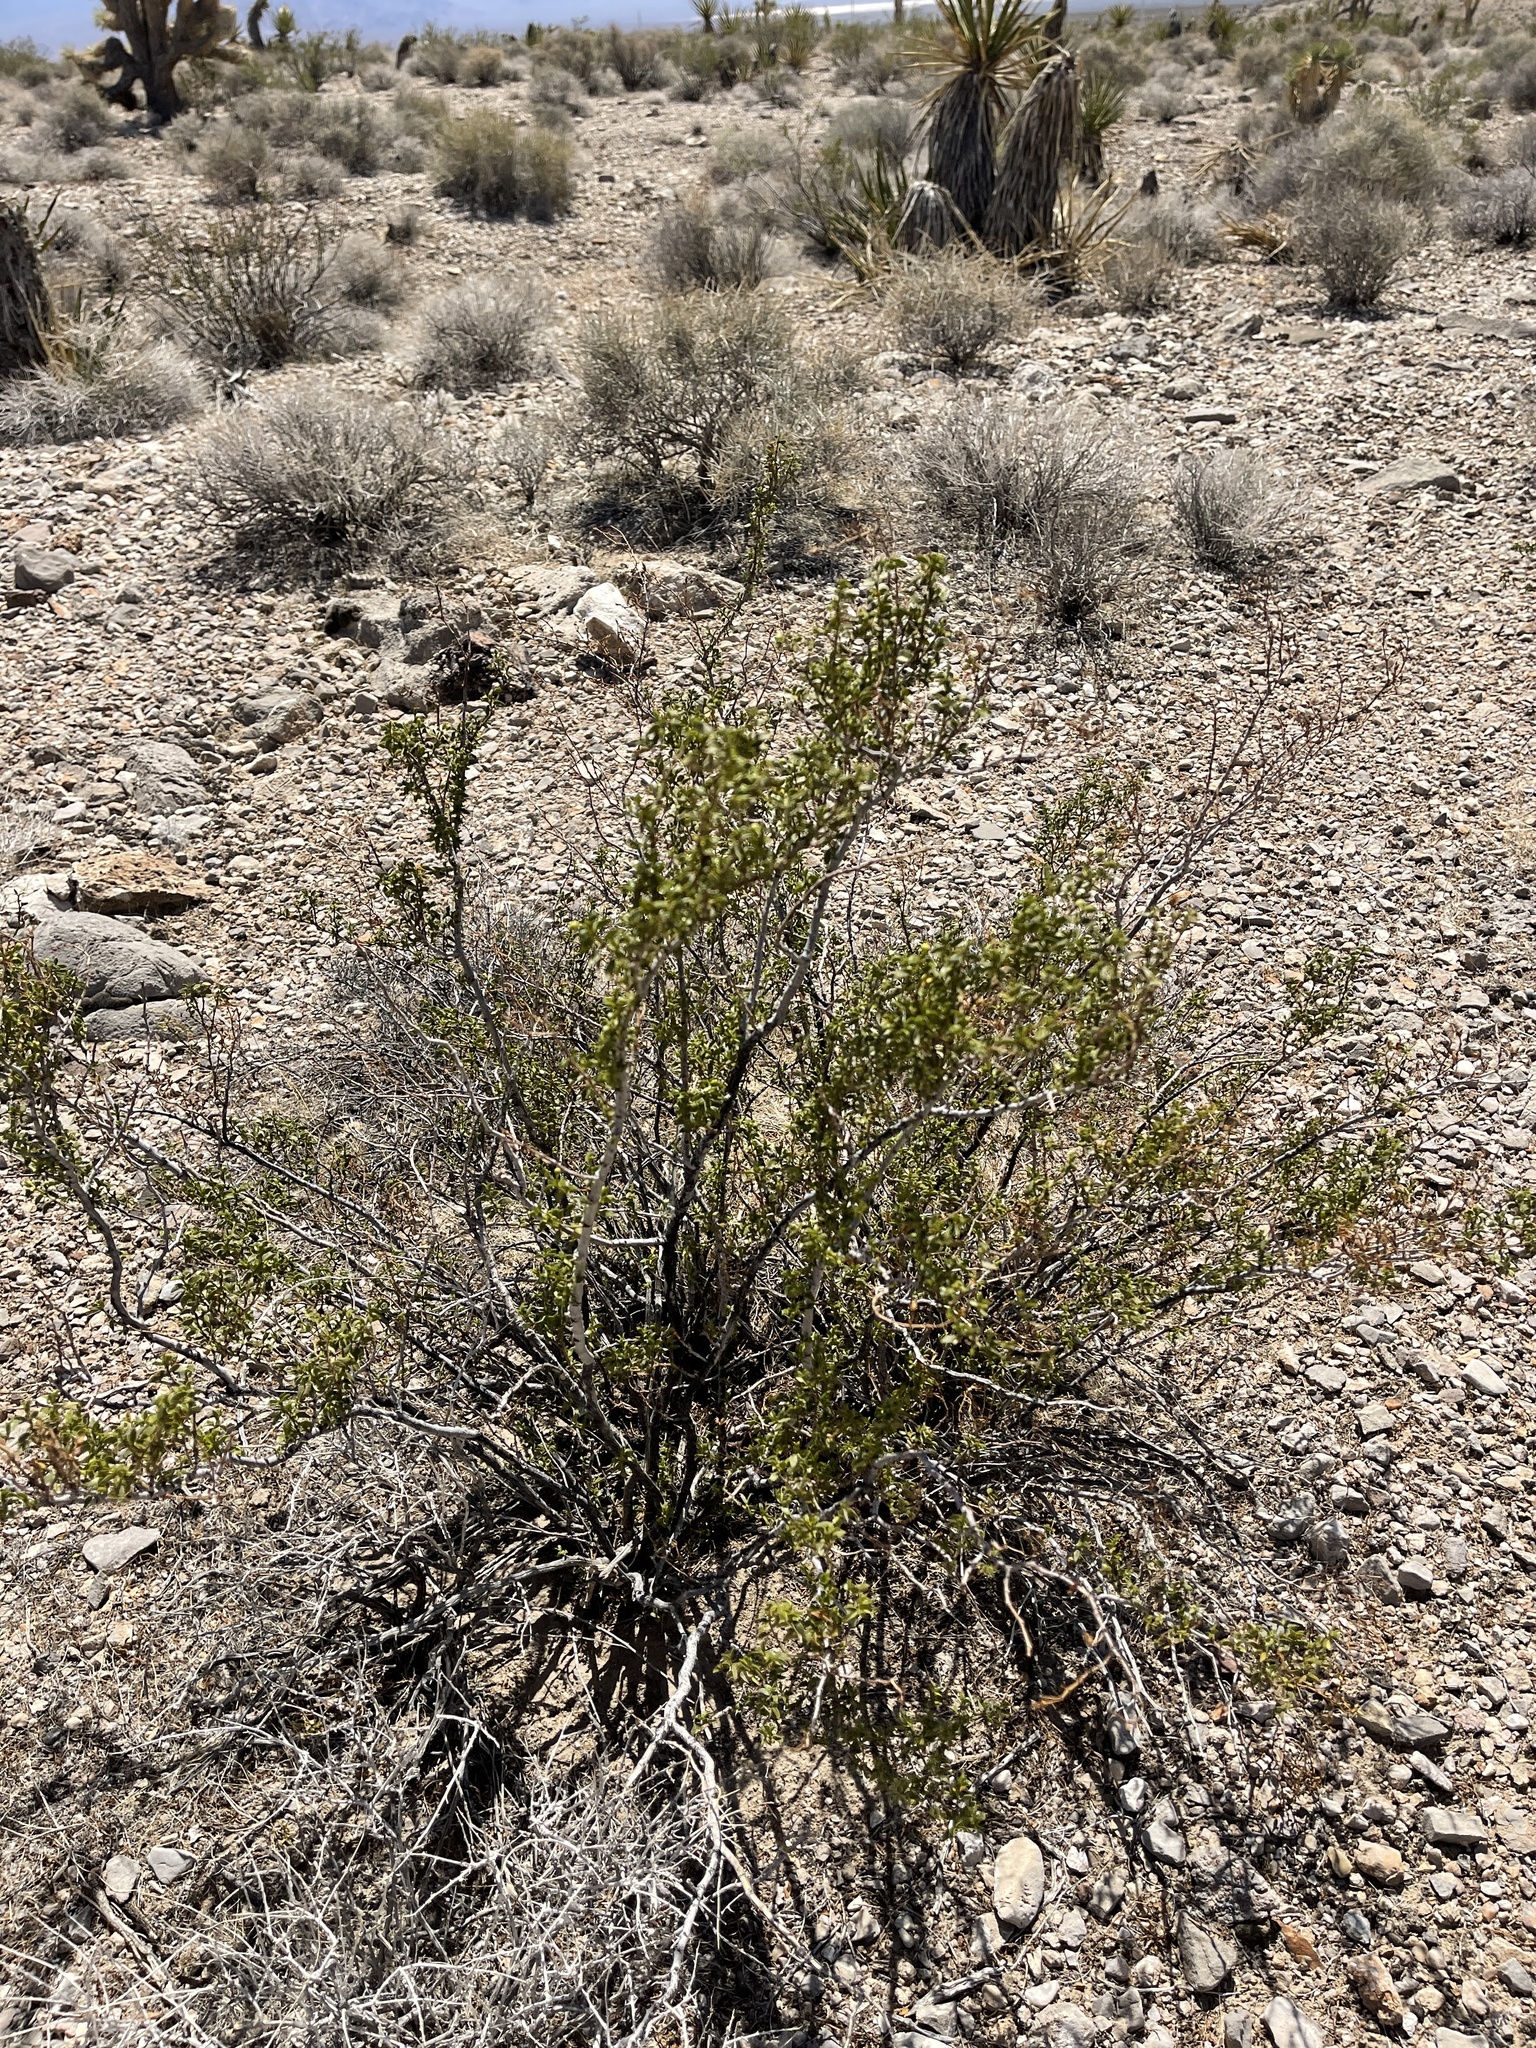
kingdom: Plantae
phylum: Tracheophyta
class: Magnoliopsida
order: Zygophyllales
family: Zygophyllaceae
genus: Larrea
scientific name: Larrea tridentata
